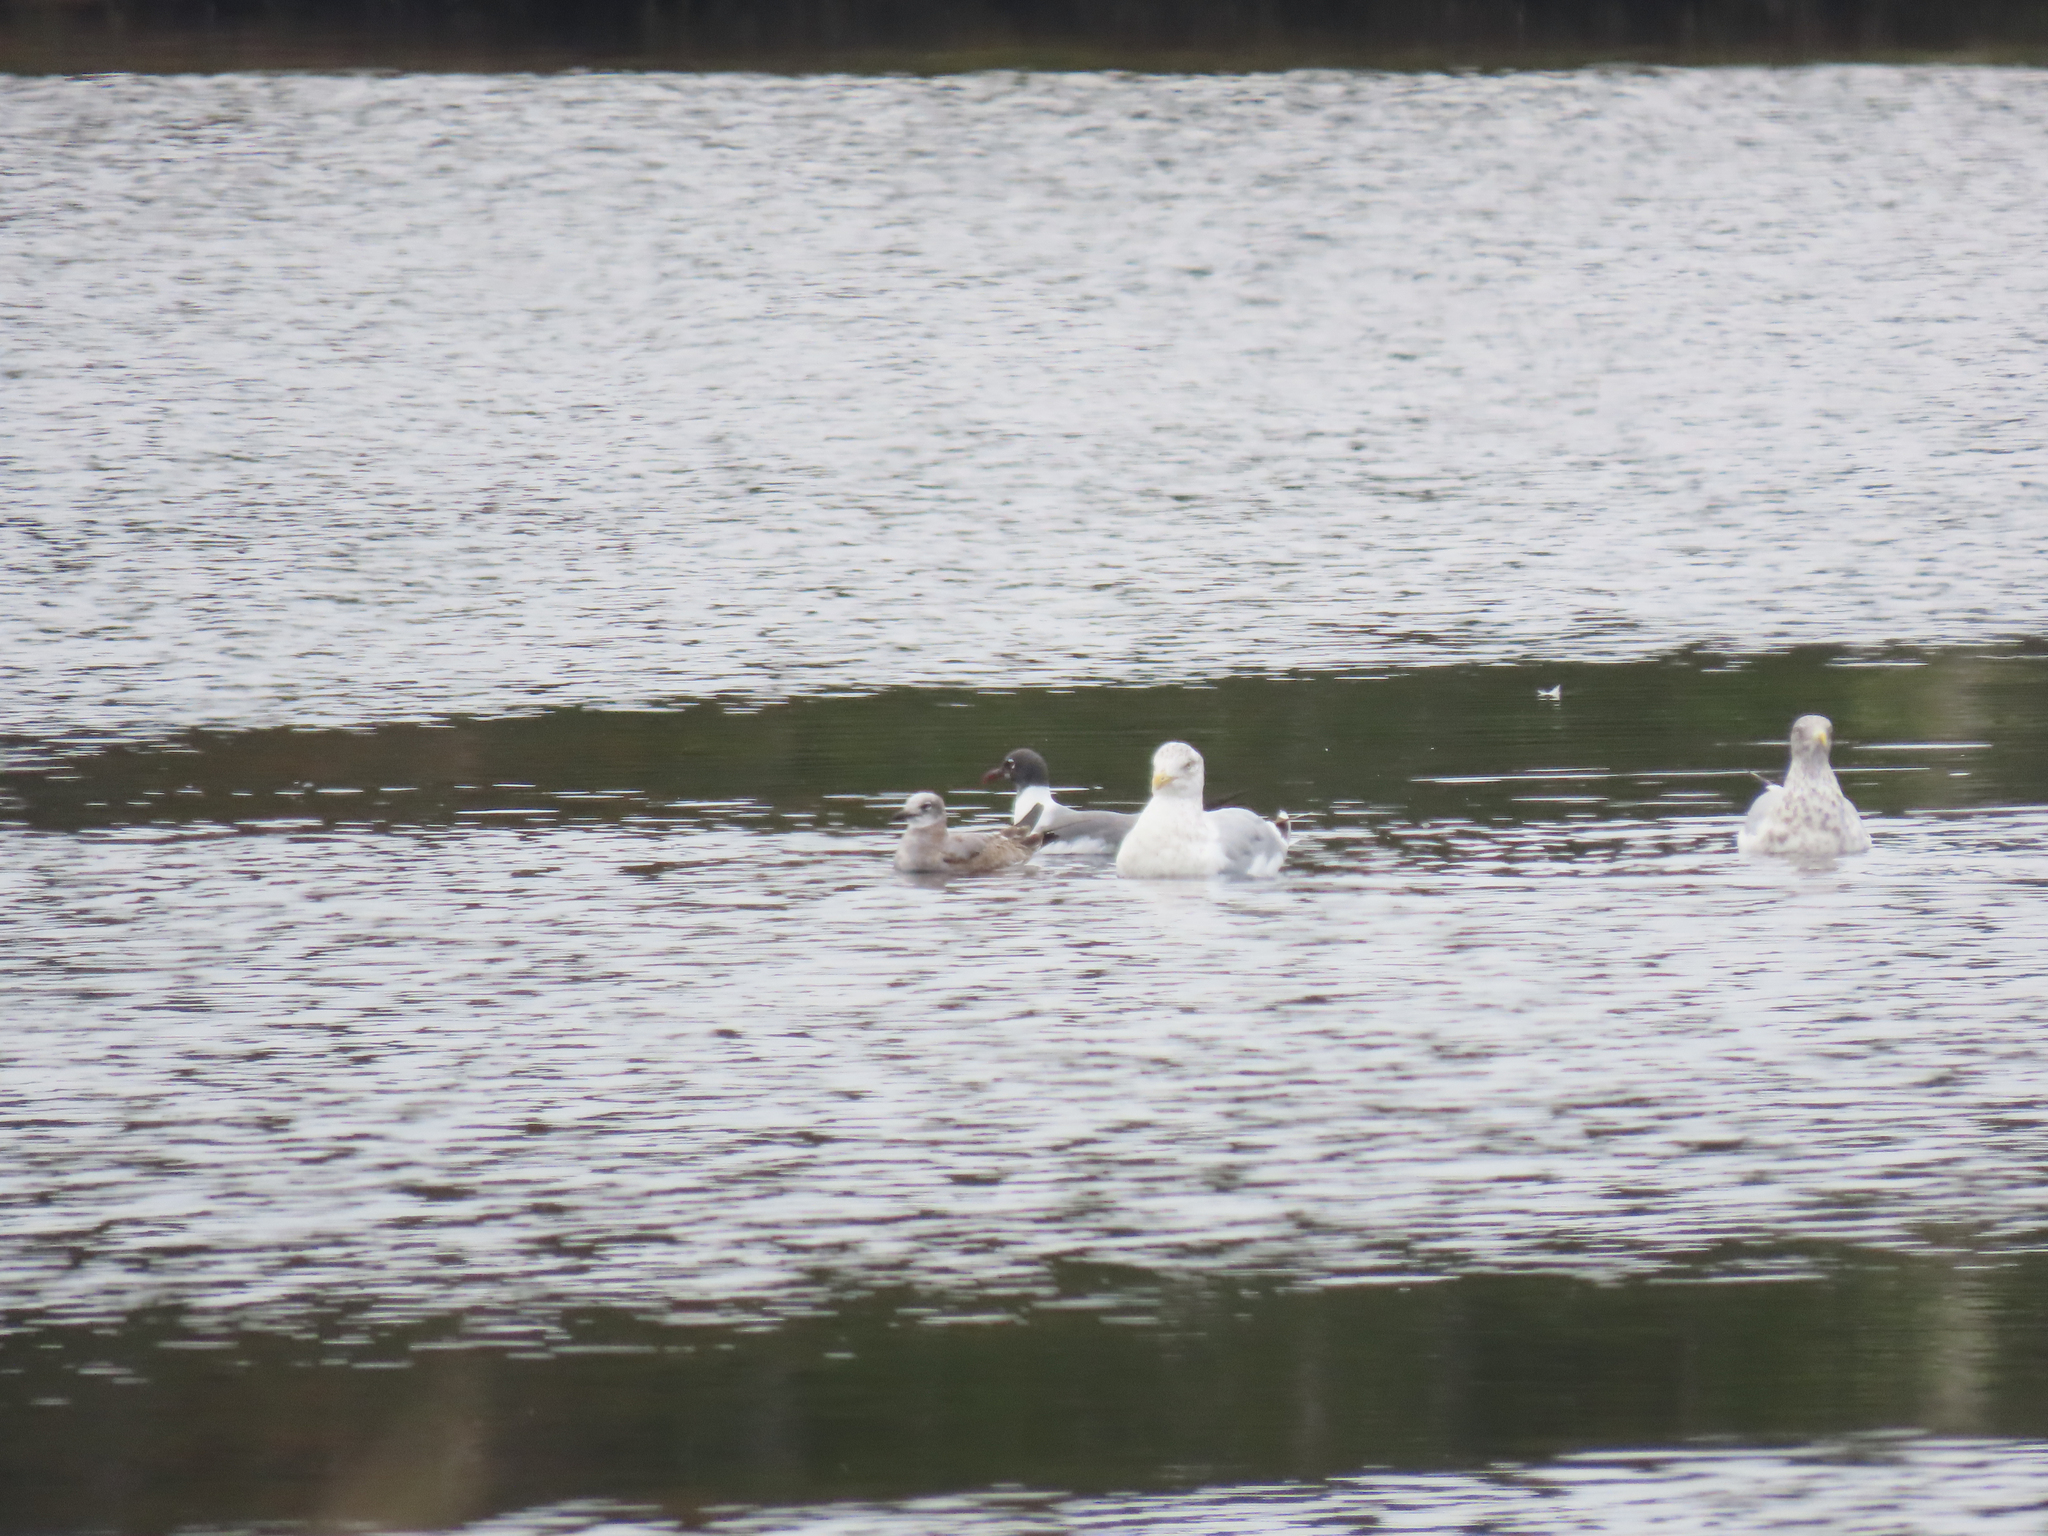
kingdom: Animalia
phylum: Chordata
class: Aves
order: Charadriiformes
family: Laridae
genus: Leucophaeus
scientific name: Leucophaeus atricilla
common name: Laughing gull
